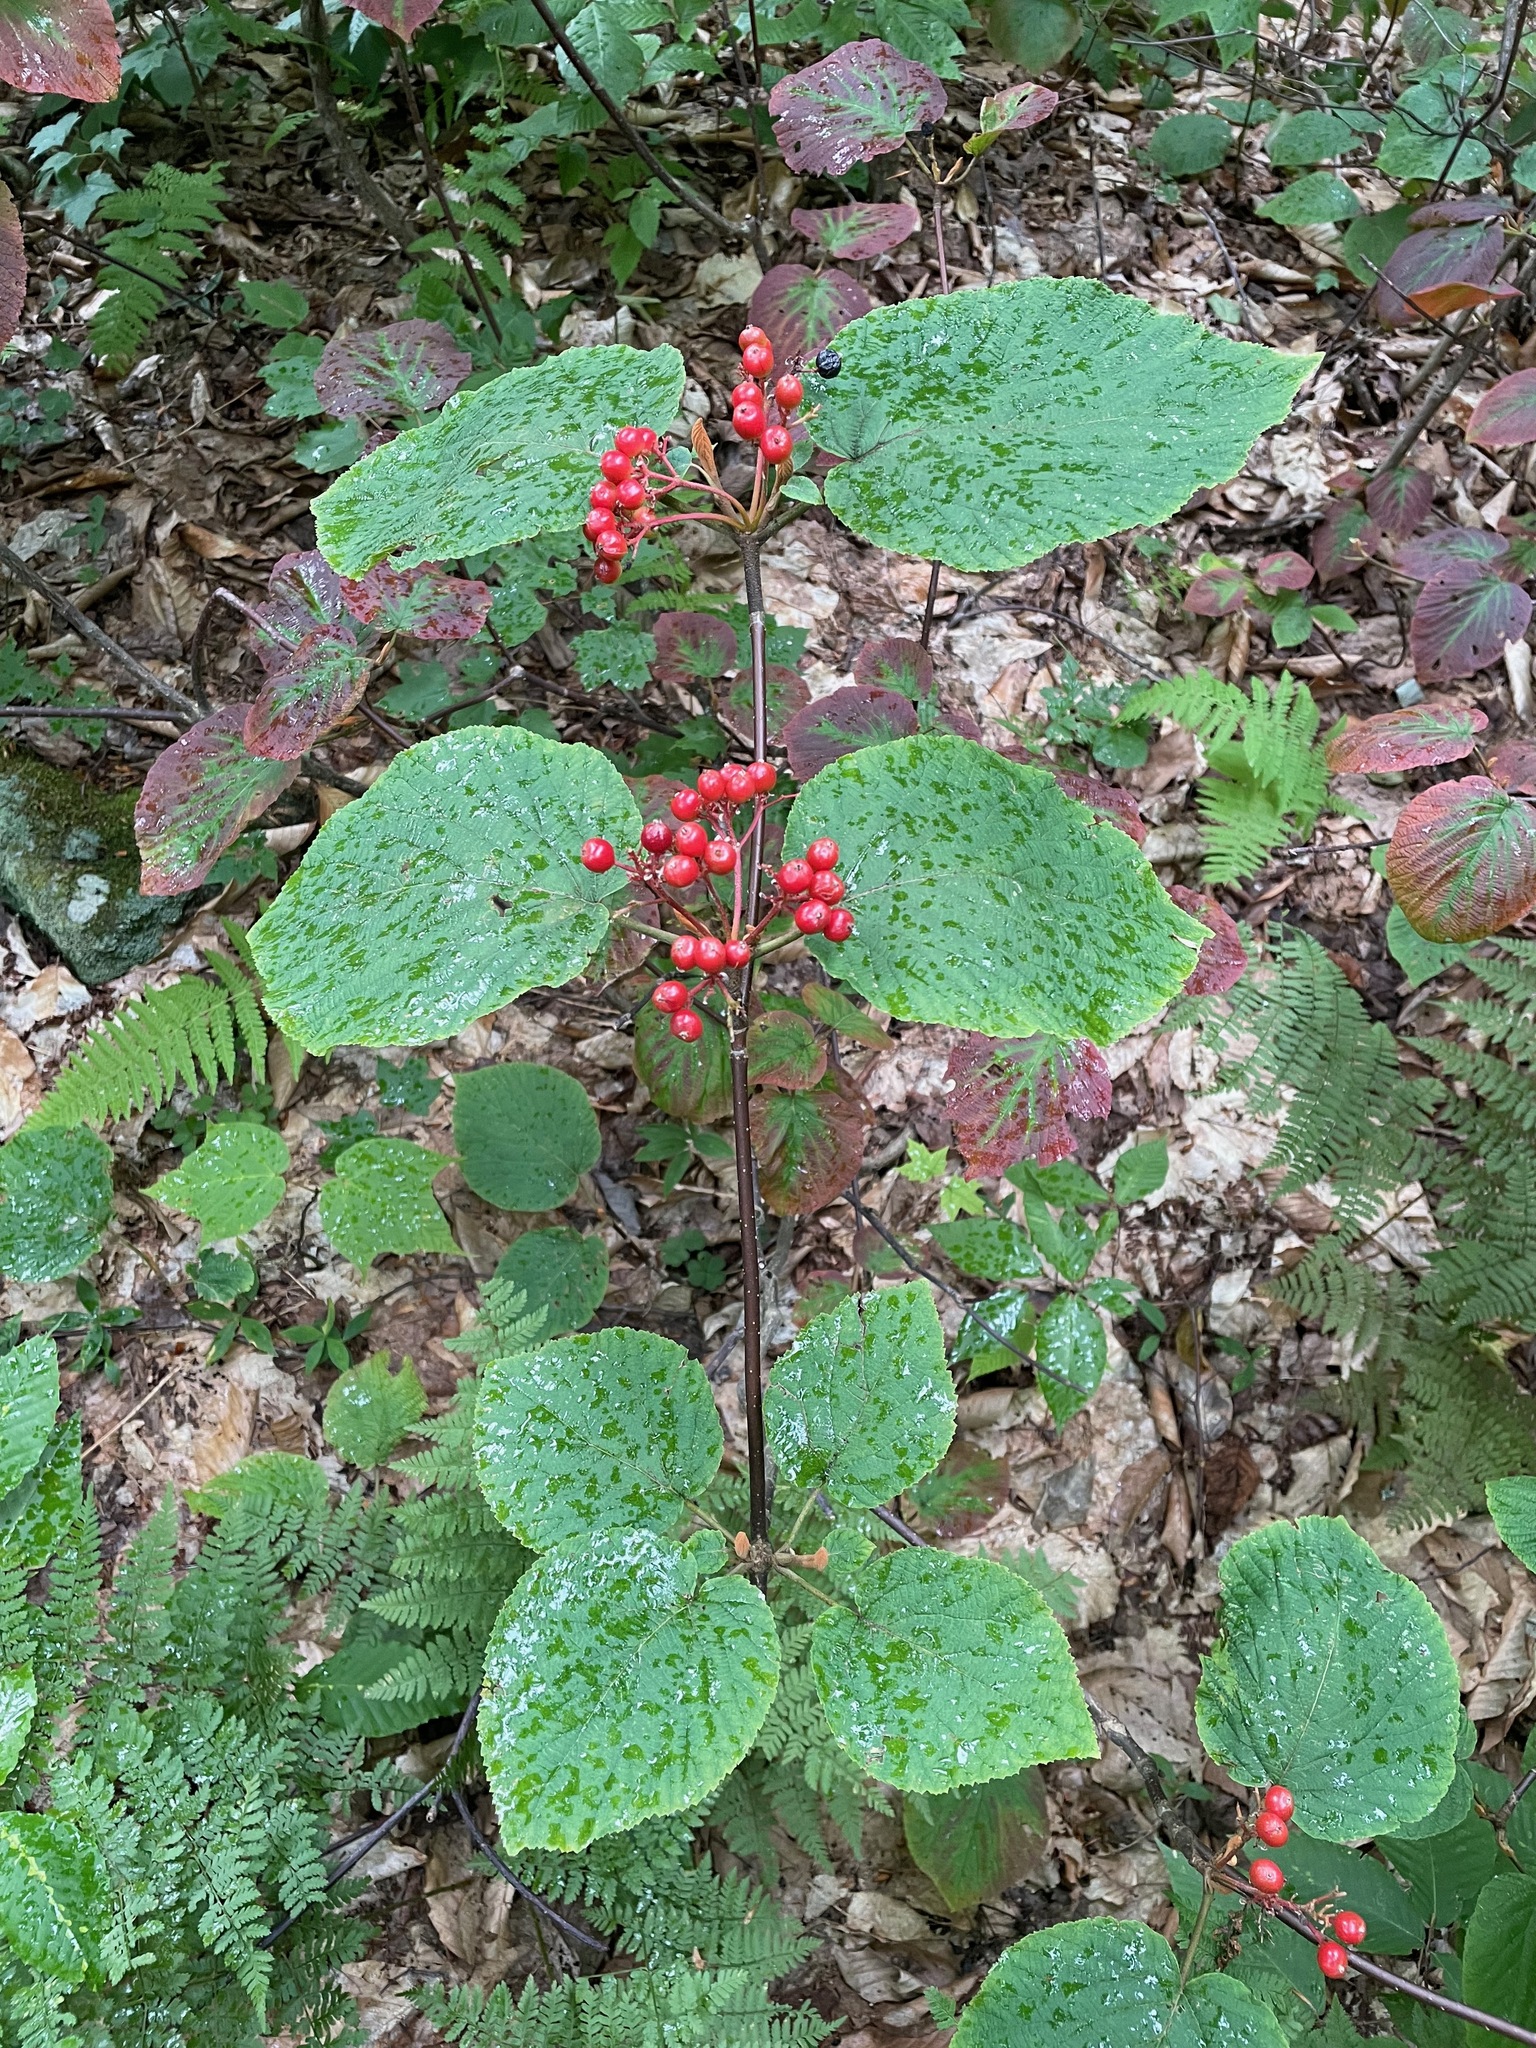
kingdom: Plantae
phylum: Tracheophyta
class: Magnoliopsida
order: Dipsacales
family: Viburnaceae
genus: Viburnum
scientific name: Viburnum lantanoides
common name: Hobblebush
